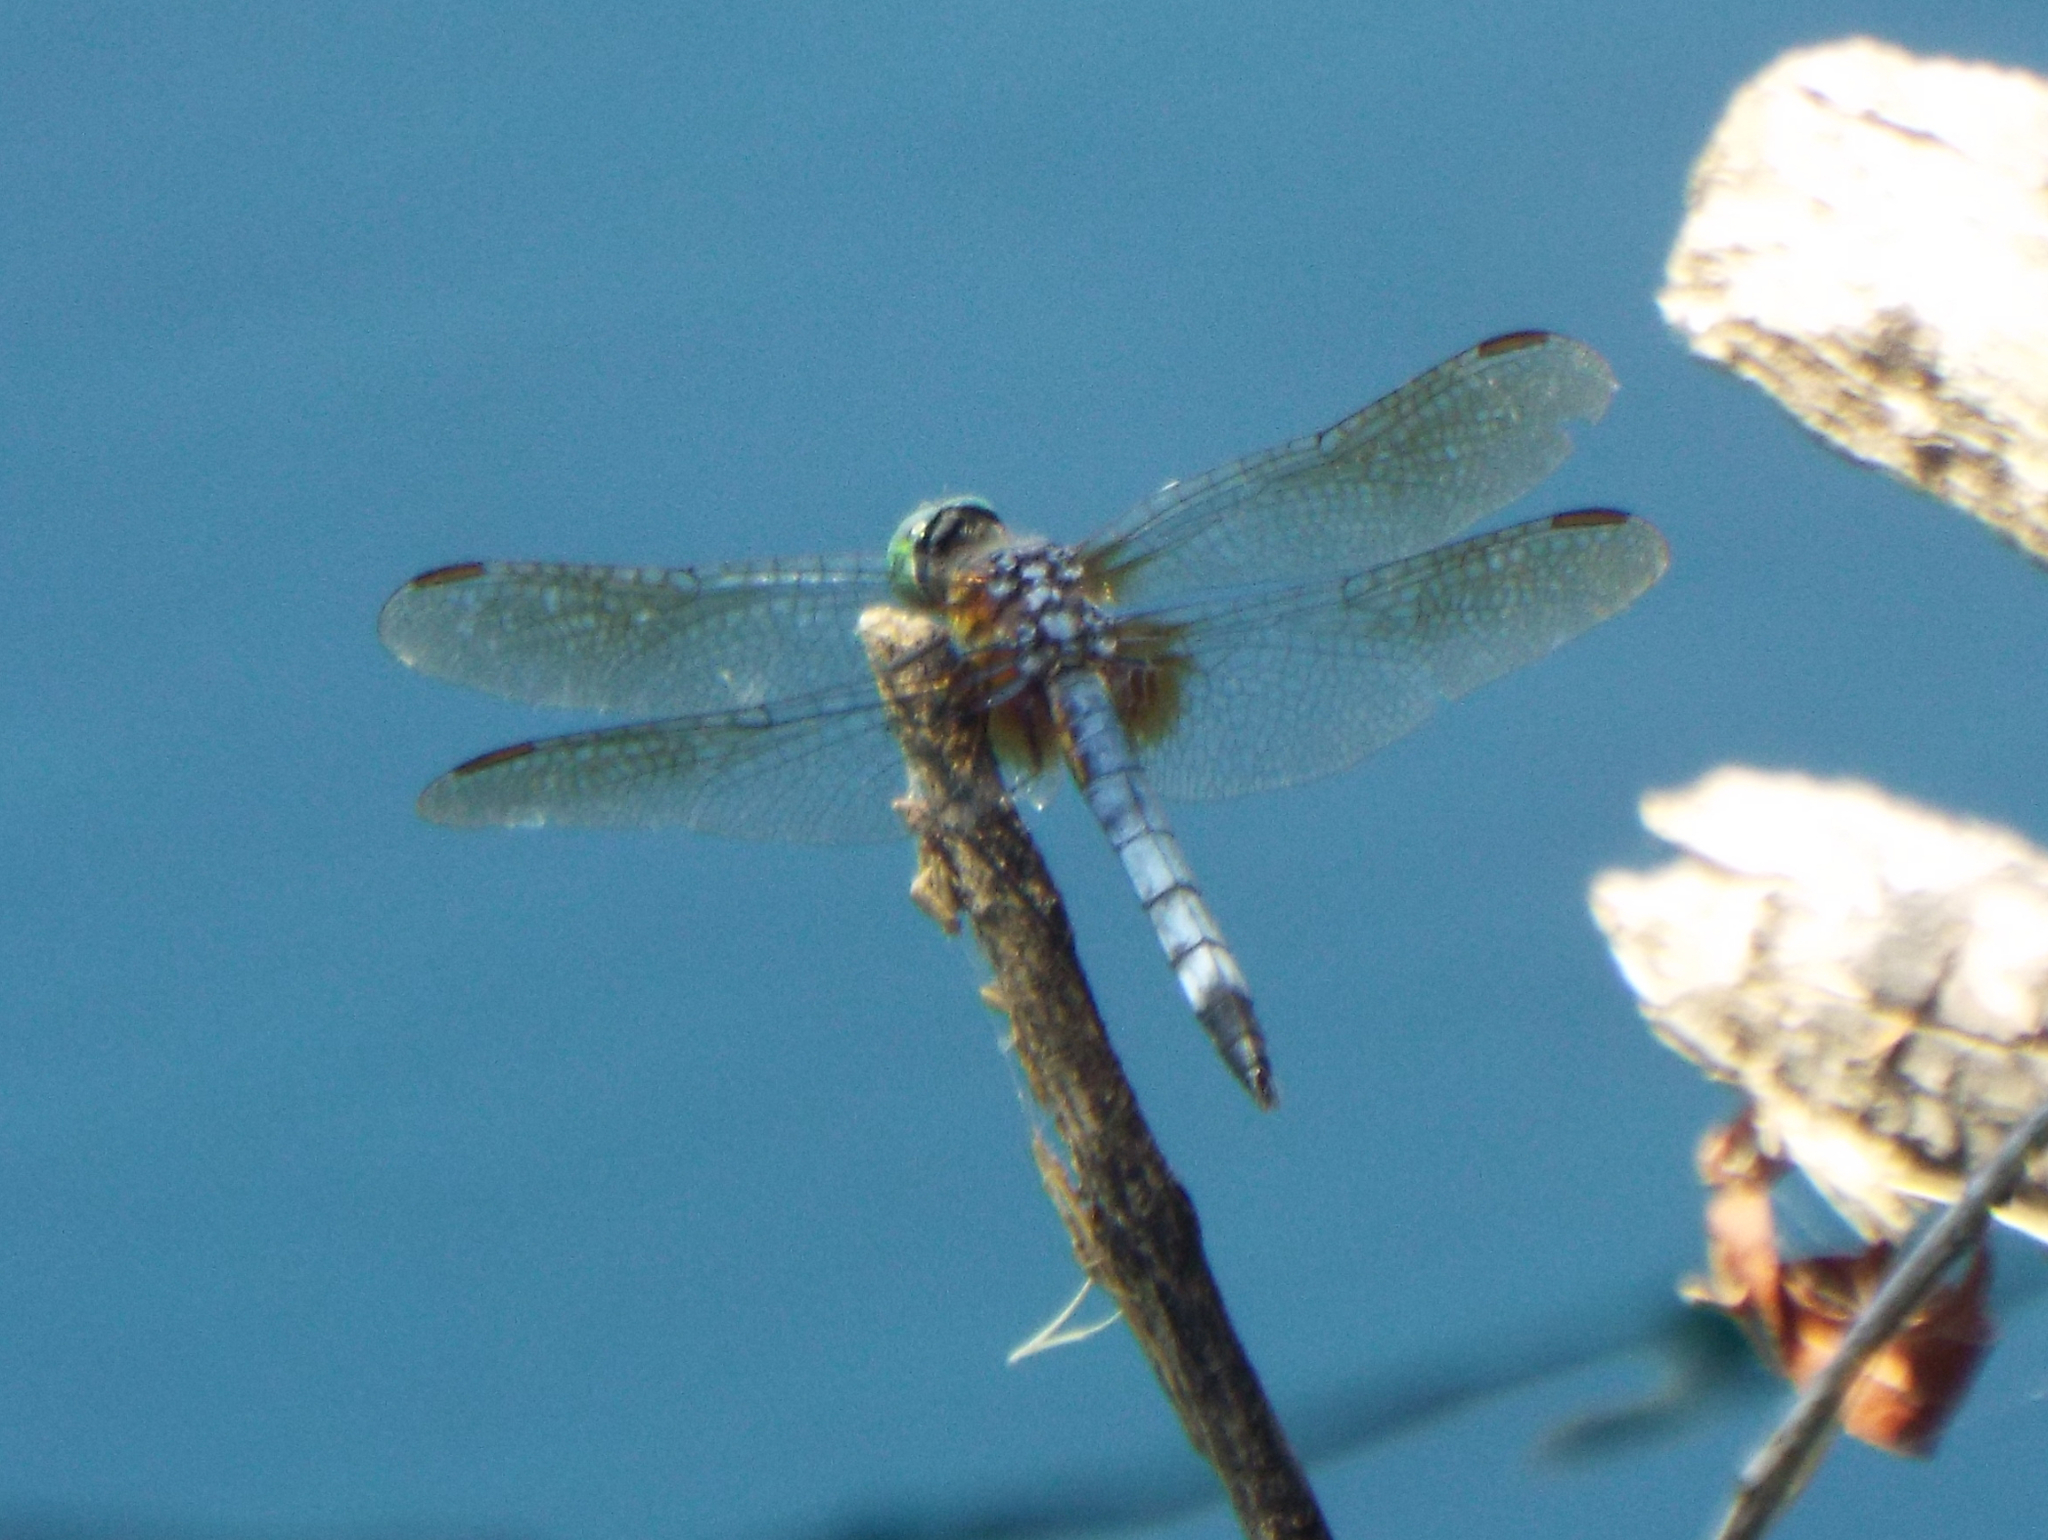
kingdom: Animalia
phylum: Arthropoda
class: Insecta
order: Odonata
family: Libellulidae
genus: Pachydiplax
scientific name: Pachydiplax longipennis
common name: Blue dasher
